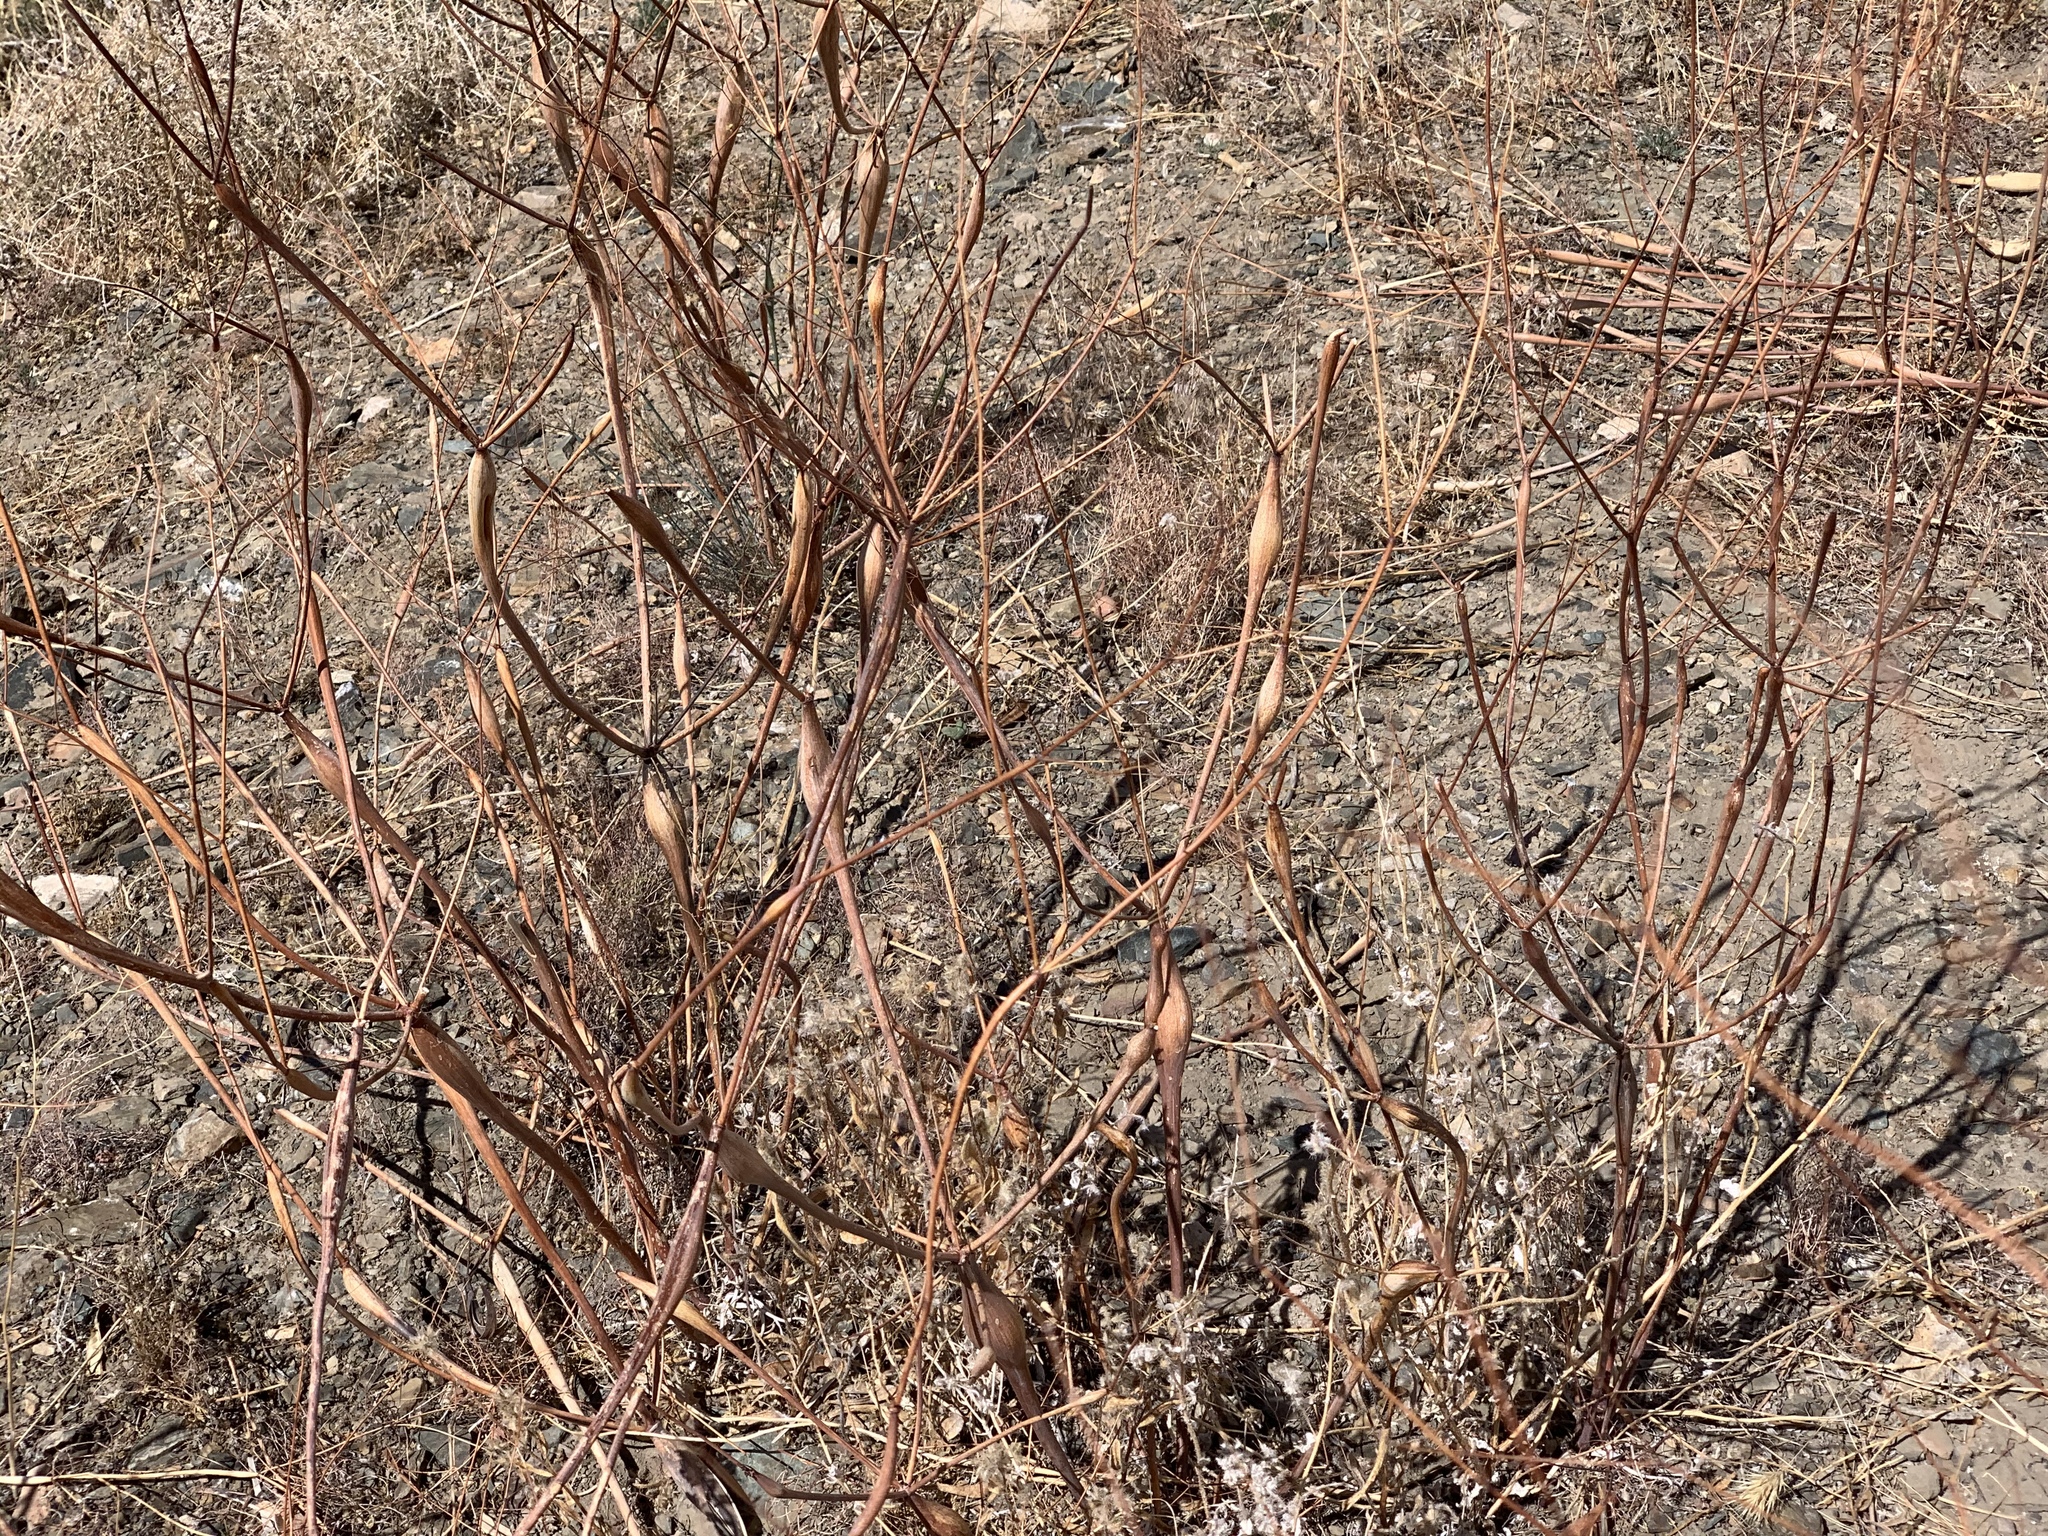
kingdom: Plantae
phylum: Tracheophyta
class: Magnoliopsida
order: Caryophyllales
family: Polygonaceae
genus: Eriogonum
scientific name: Eriogonum inflatum
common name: Desert trumpet
